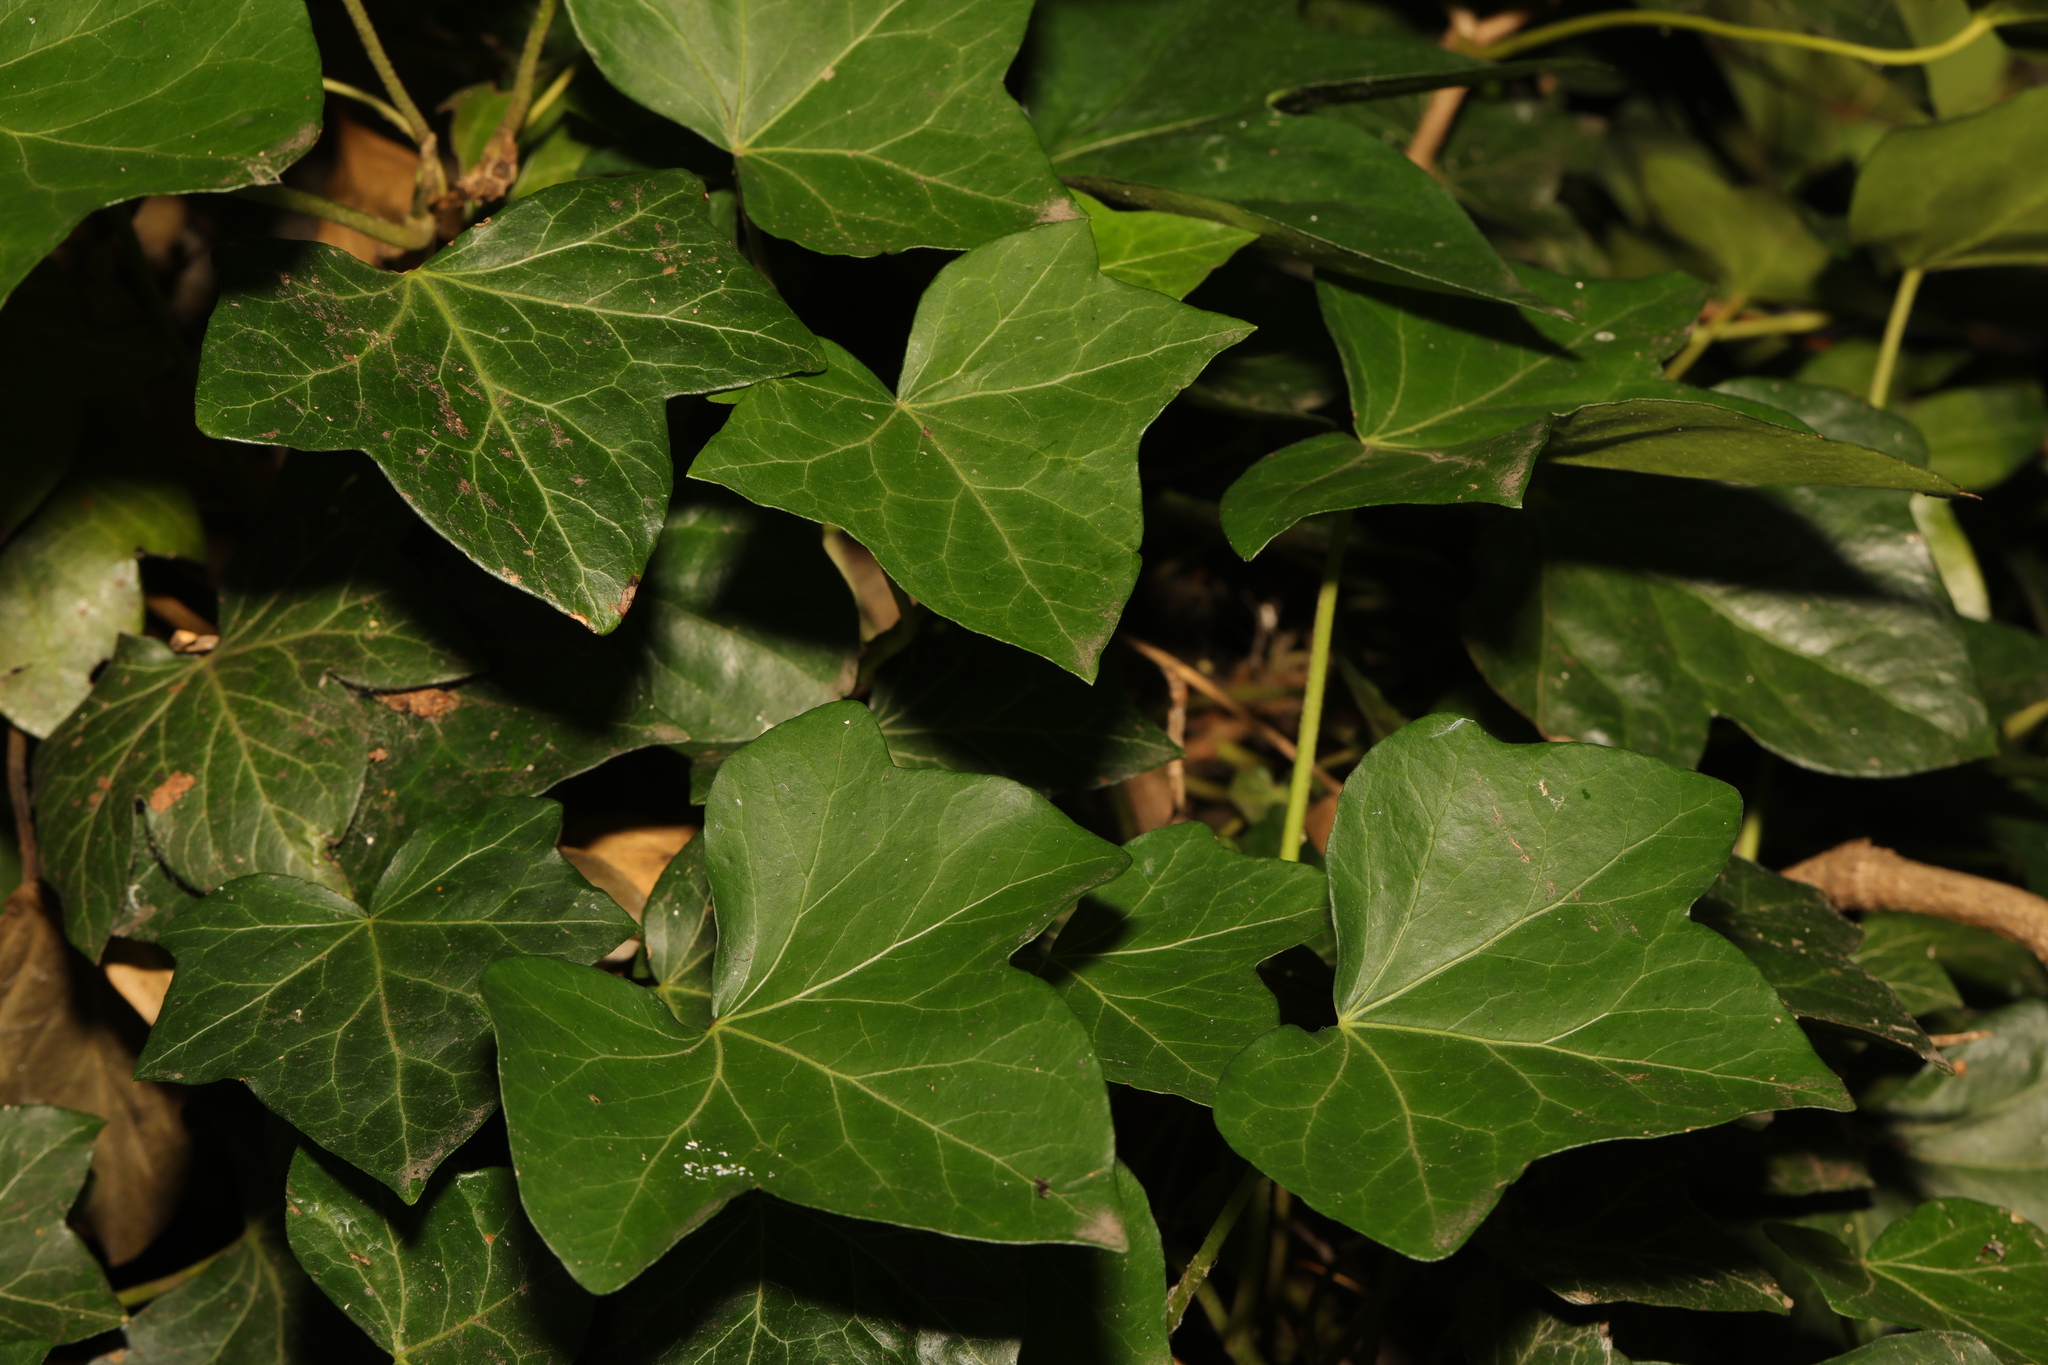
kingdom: Plantae
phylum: Tracheophyta
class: Magnoliopsida
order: Apiales
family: Araliaceae
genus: Hedera
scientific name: Hedera helix
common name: Ivy
